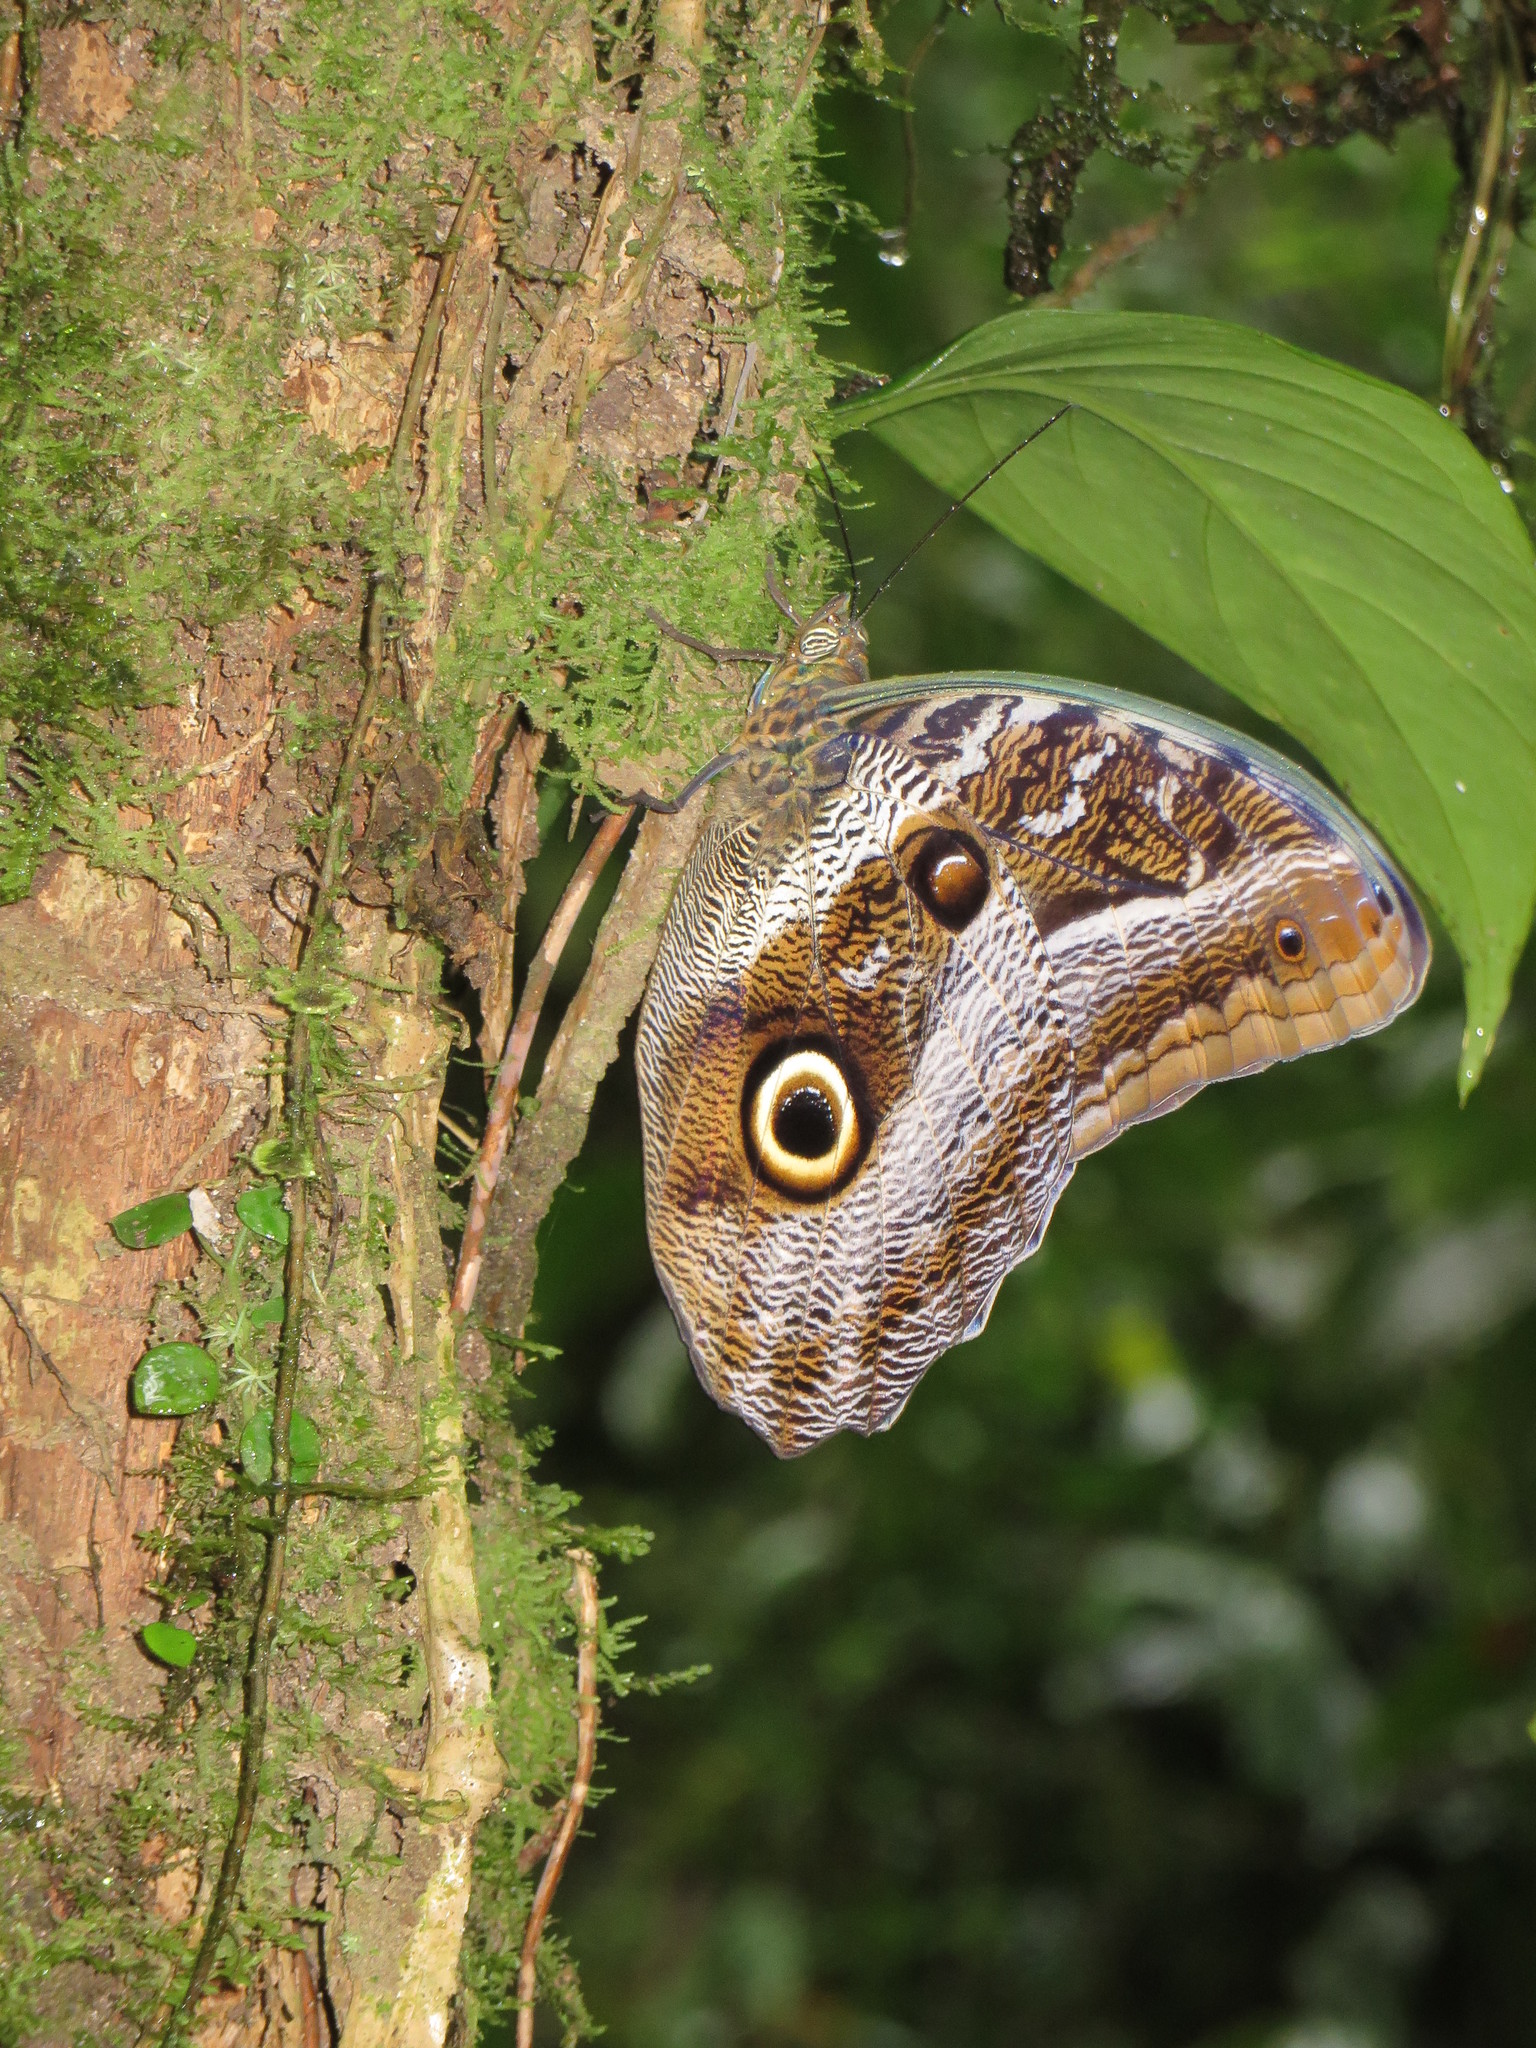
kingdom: Animalia
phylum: Arthropoda
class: Insecta
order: Lepidoptera
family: Nymphalidae
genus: Caligo
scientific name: Caligo idomeneus
